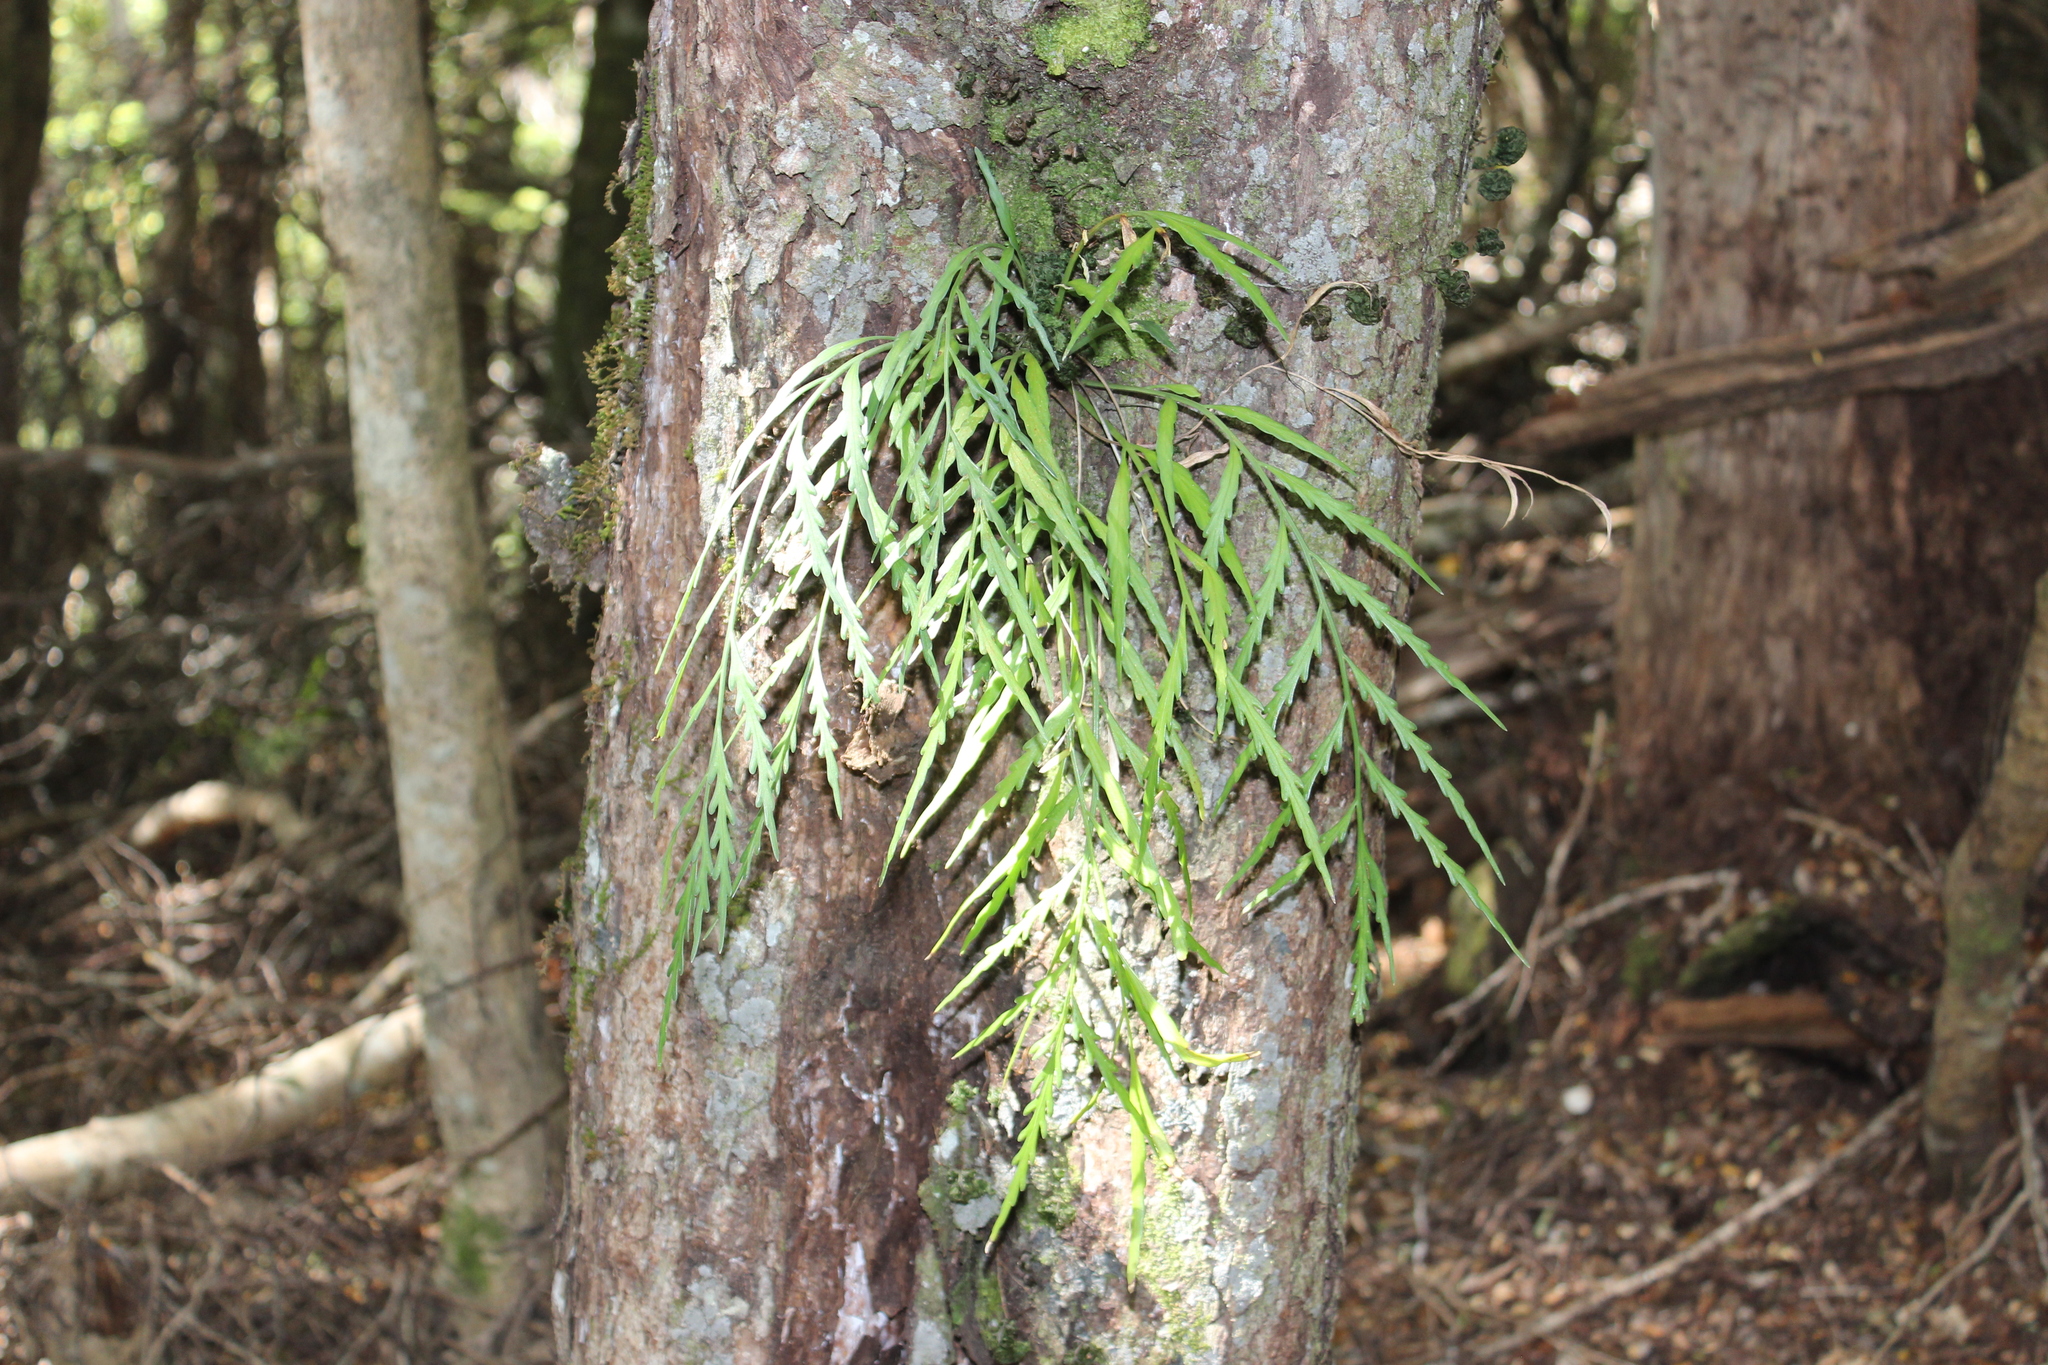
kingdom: Plantae
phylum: Tracheophyta
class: Polypodiopsida
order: Polypodiales
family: Aspleniaceae
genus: Asplenium
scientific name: Asplenium flaccidum
